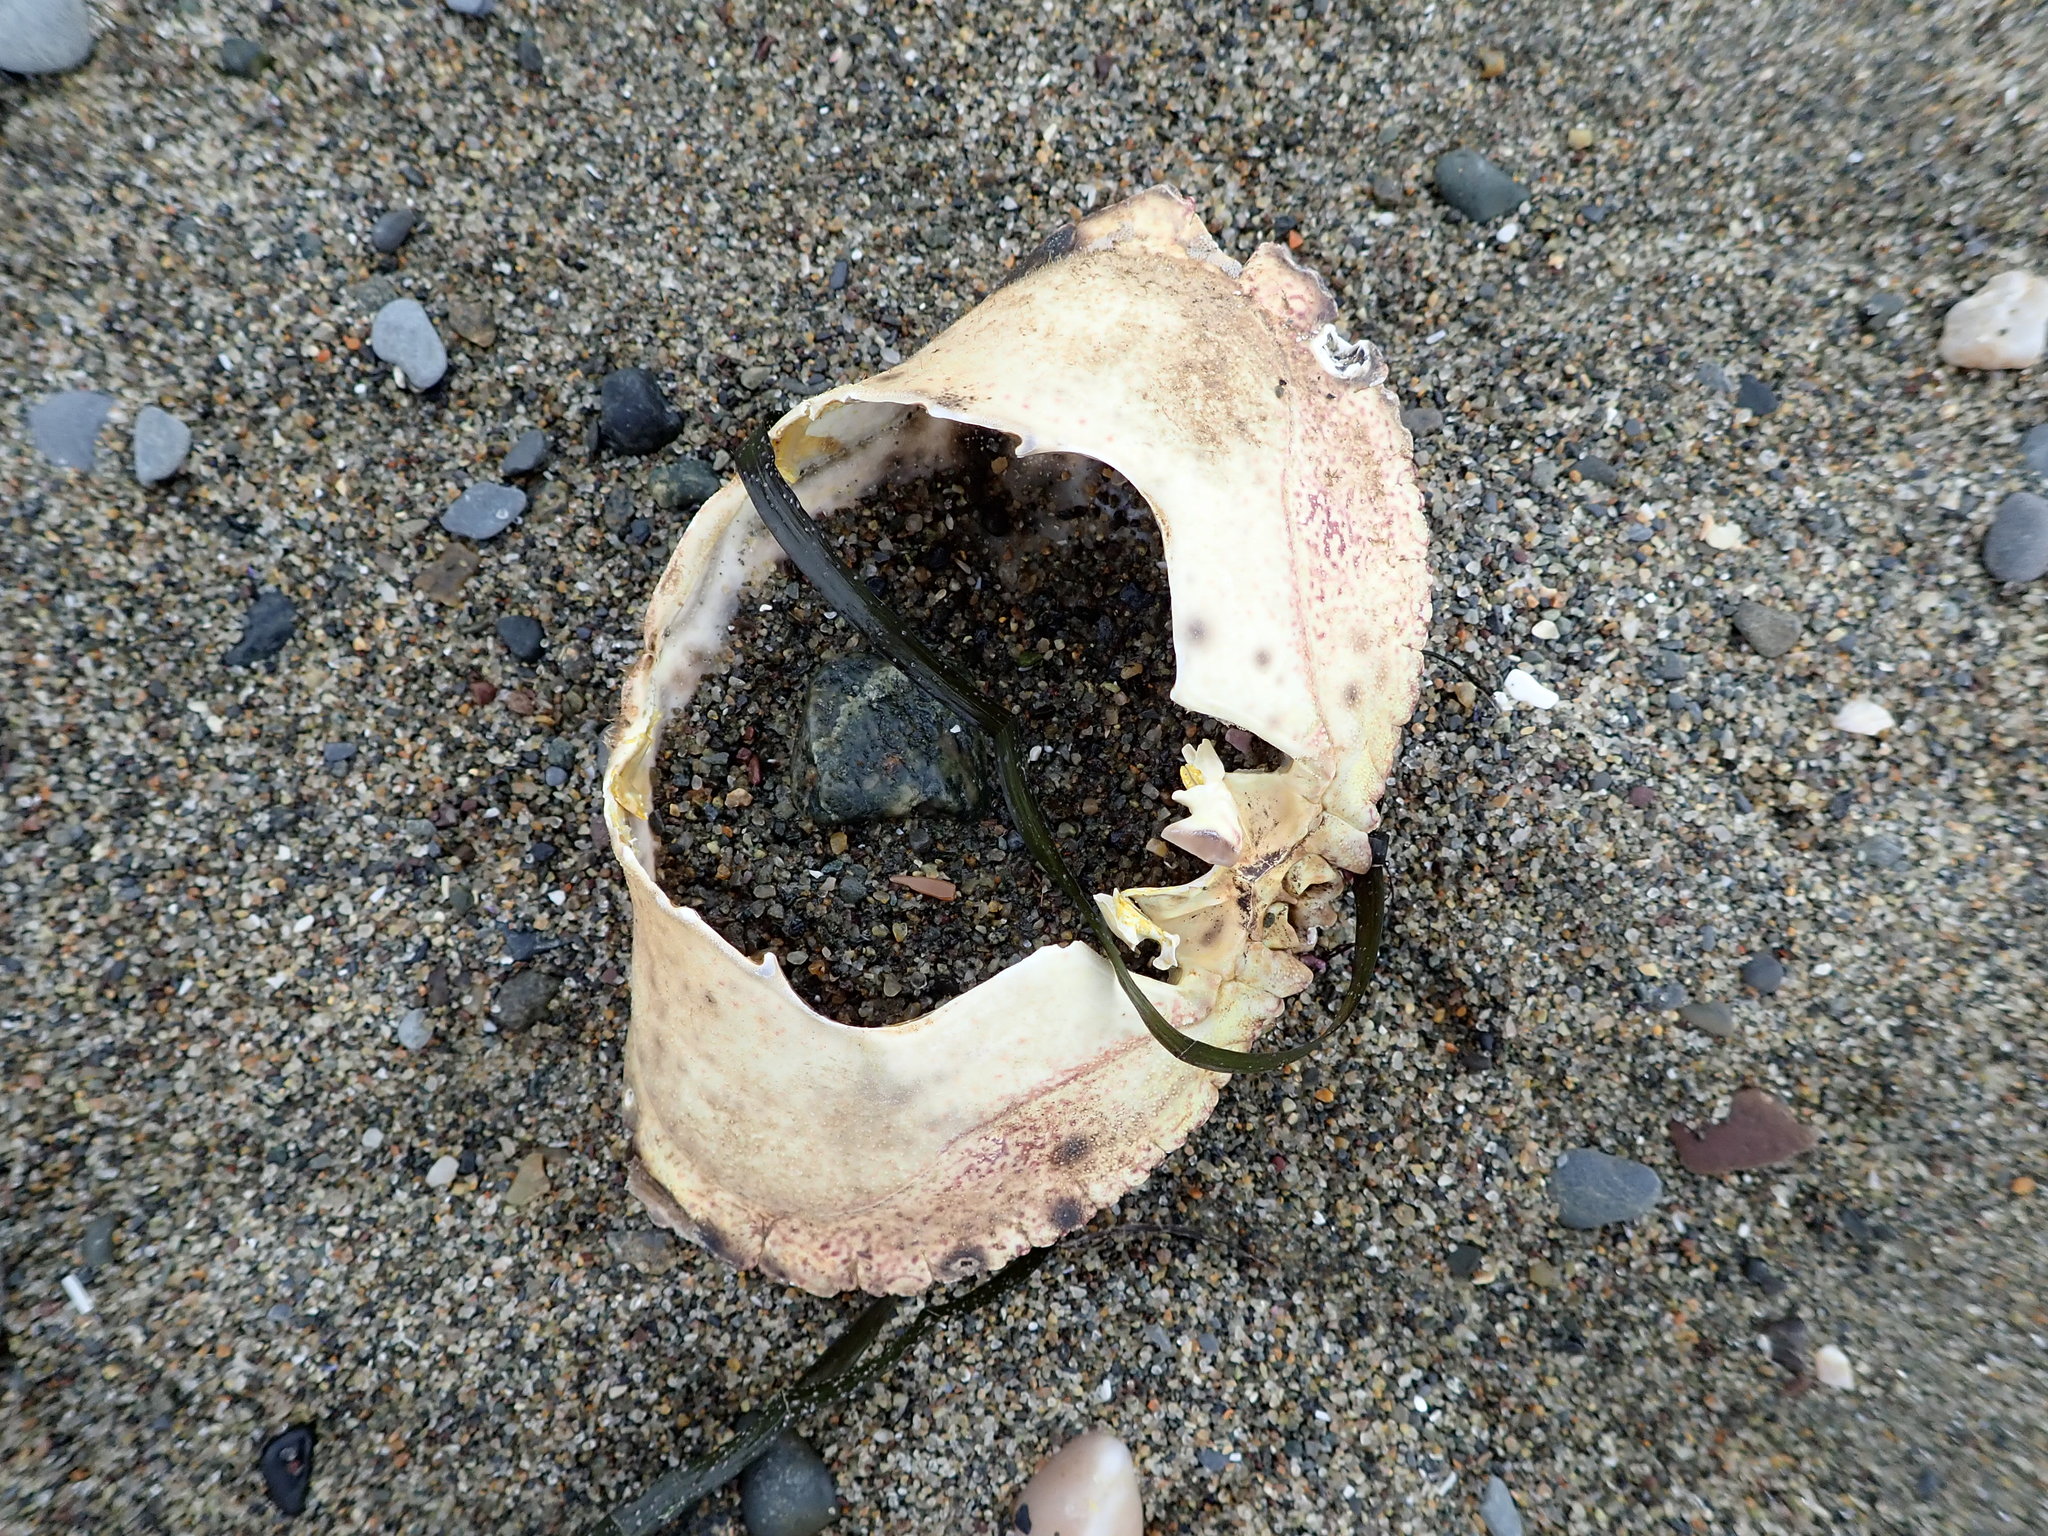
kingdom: Animalia
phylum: Arthropoda
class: Malacostraca
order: Decapoda
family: Cancridae
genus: Cancer
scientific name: Cancer borealis
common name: Jonah crab
